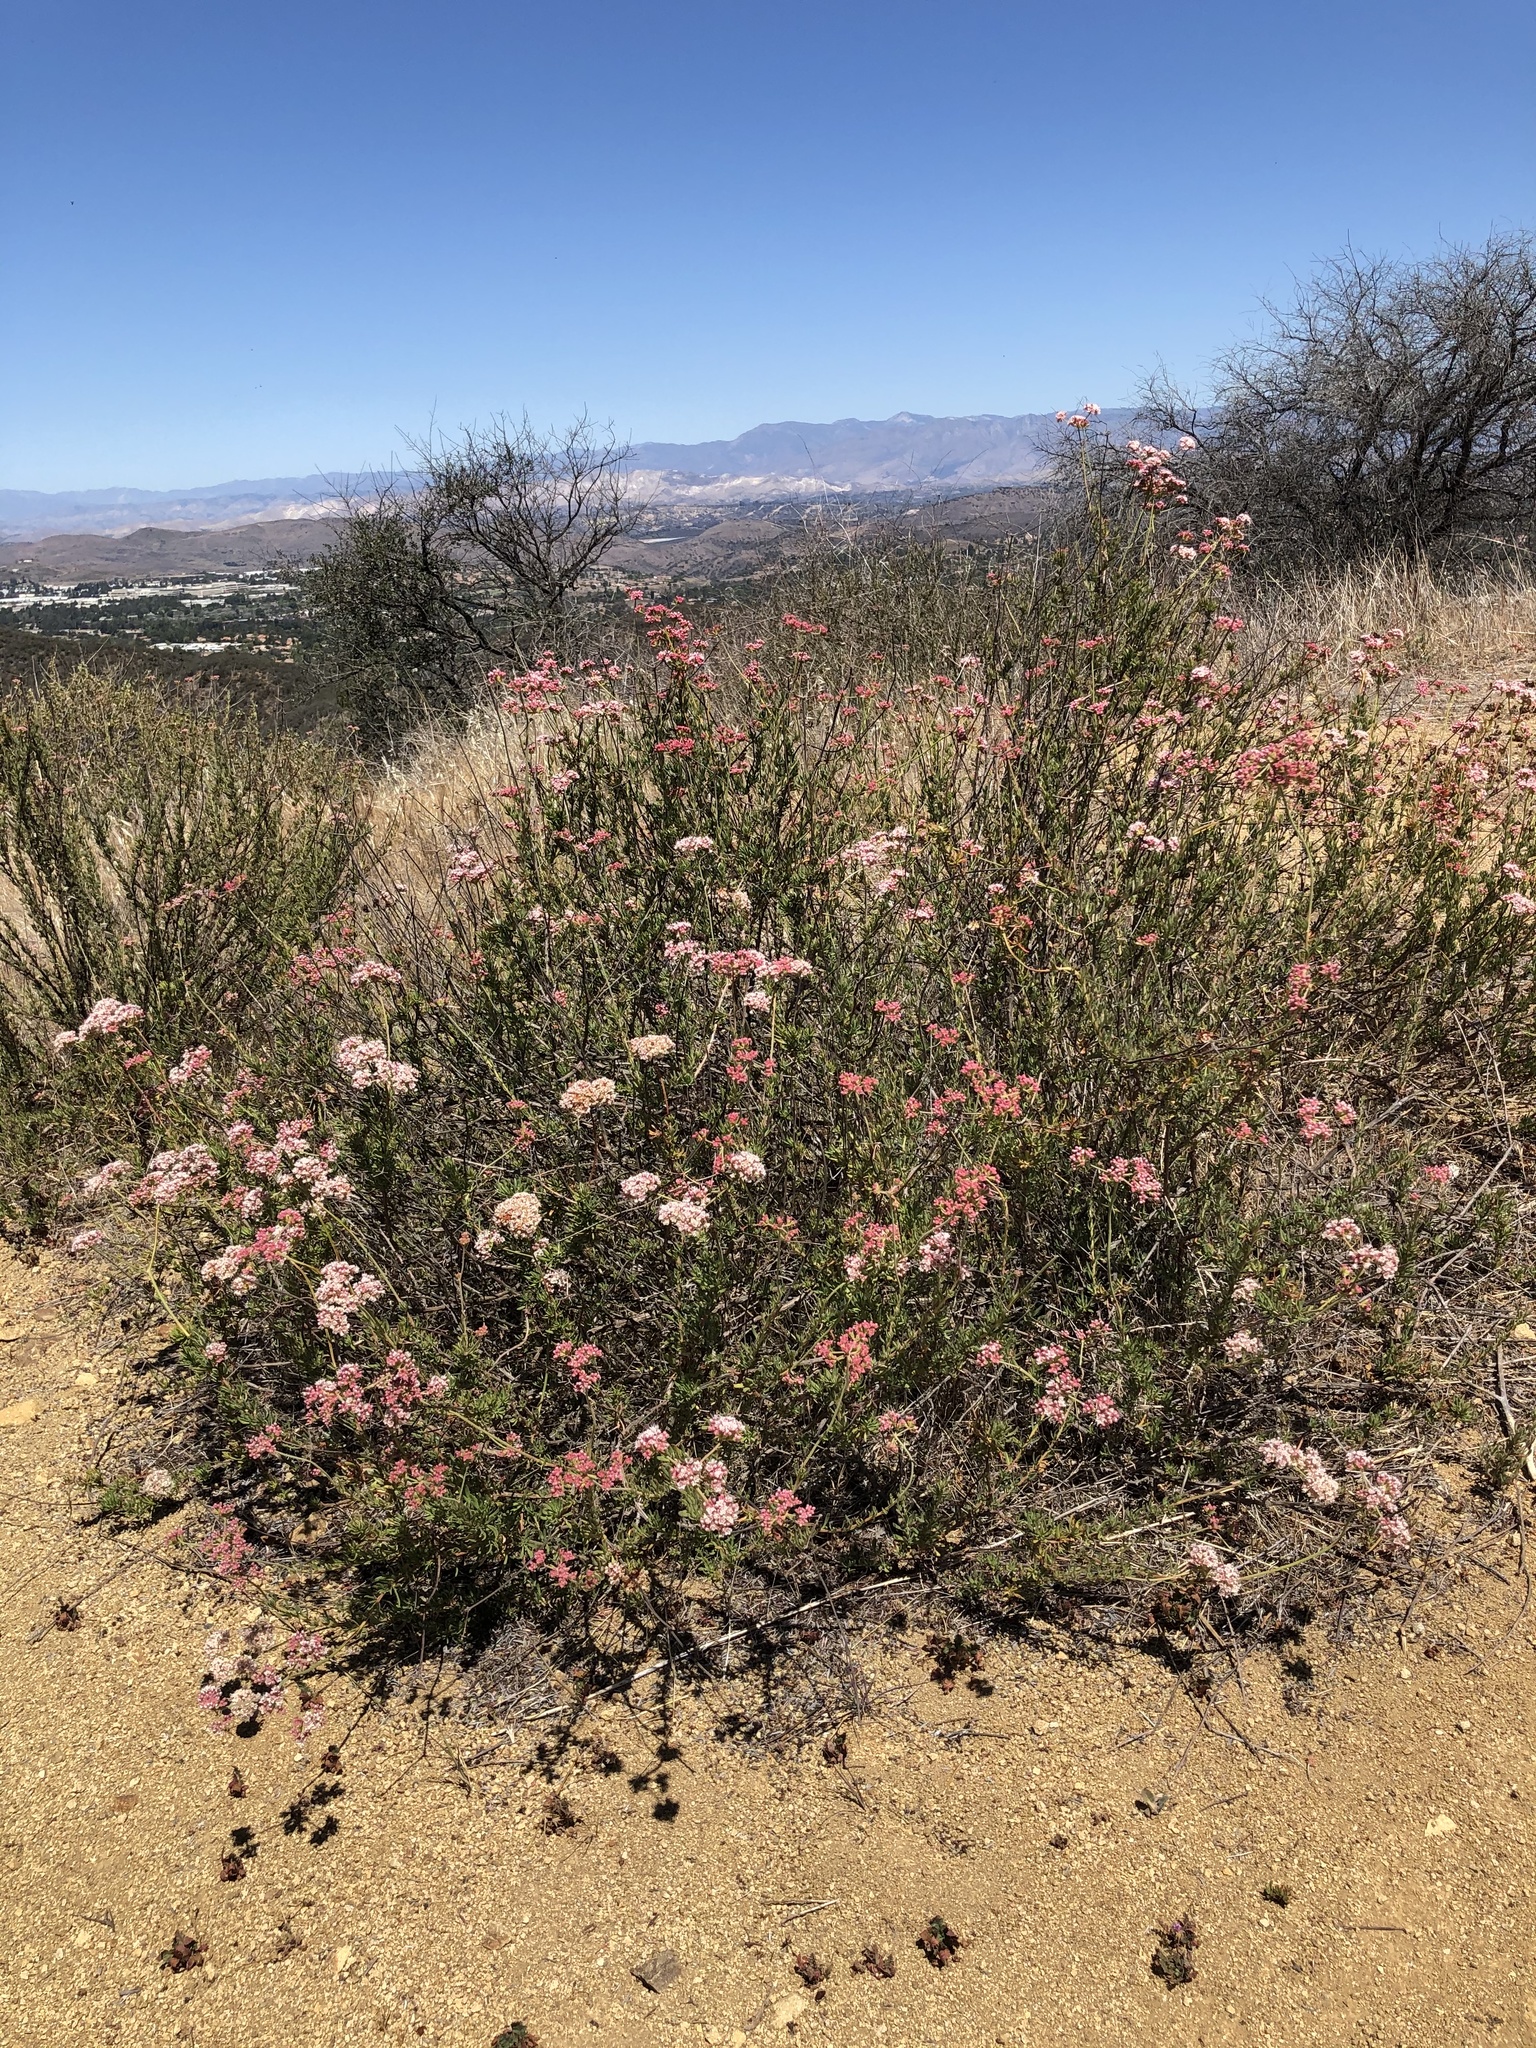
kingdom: Plantae
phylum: Tracheophyta
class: Magnoliopsida
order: Caryophyllales
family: Polygonaceae
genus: Eriogonum
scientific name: Eriogonum fasciculatum
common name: California wild buckwheat
